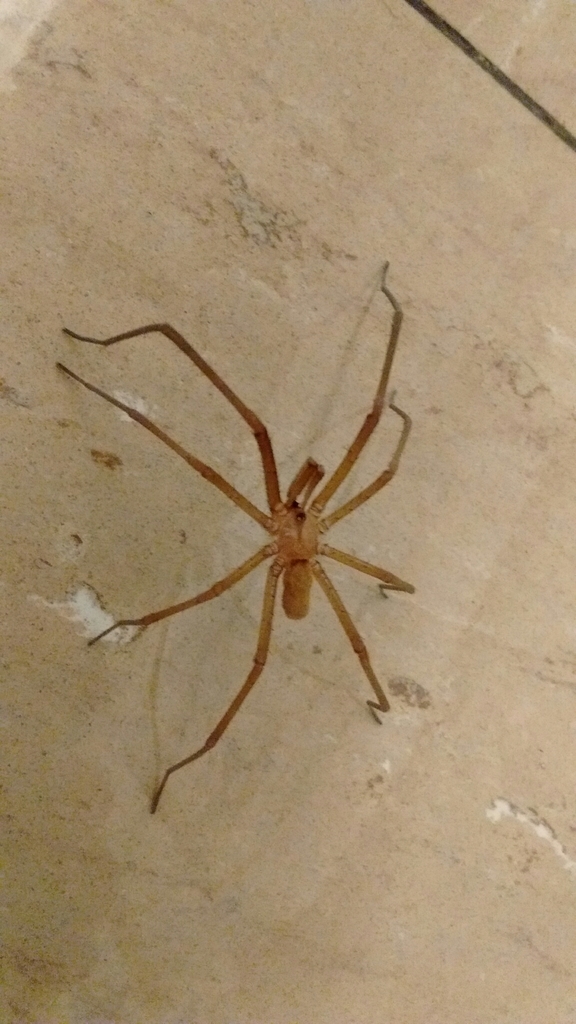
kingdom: Animalia
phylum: Arthropoda
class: Arachnida
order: Araneae
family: Filistatidae
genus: Kukulcania
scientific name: Kukulcania hibernalis
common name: Crevice weaver
